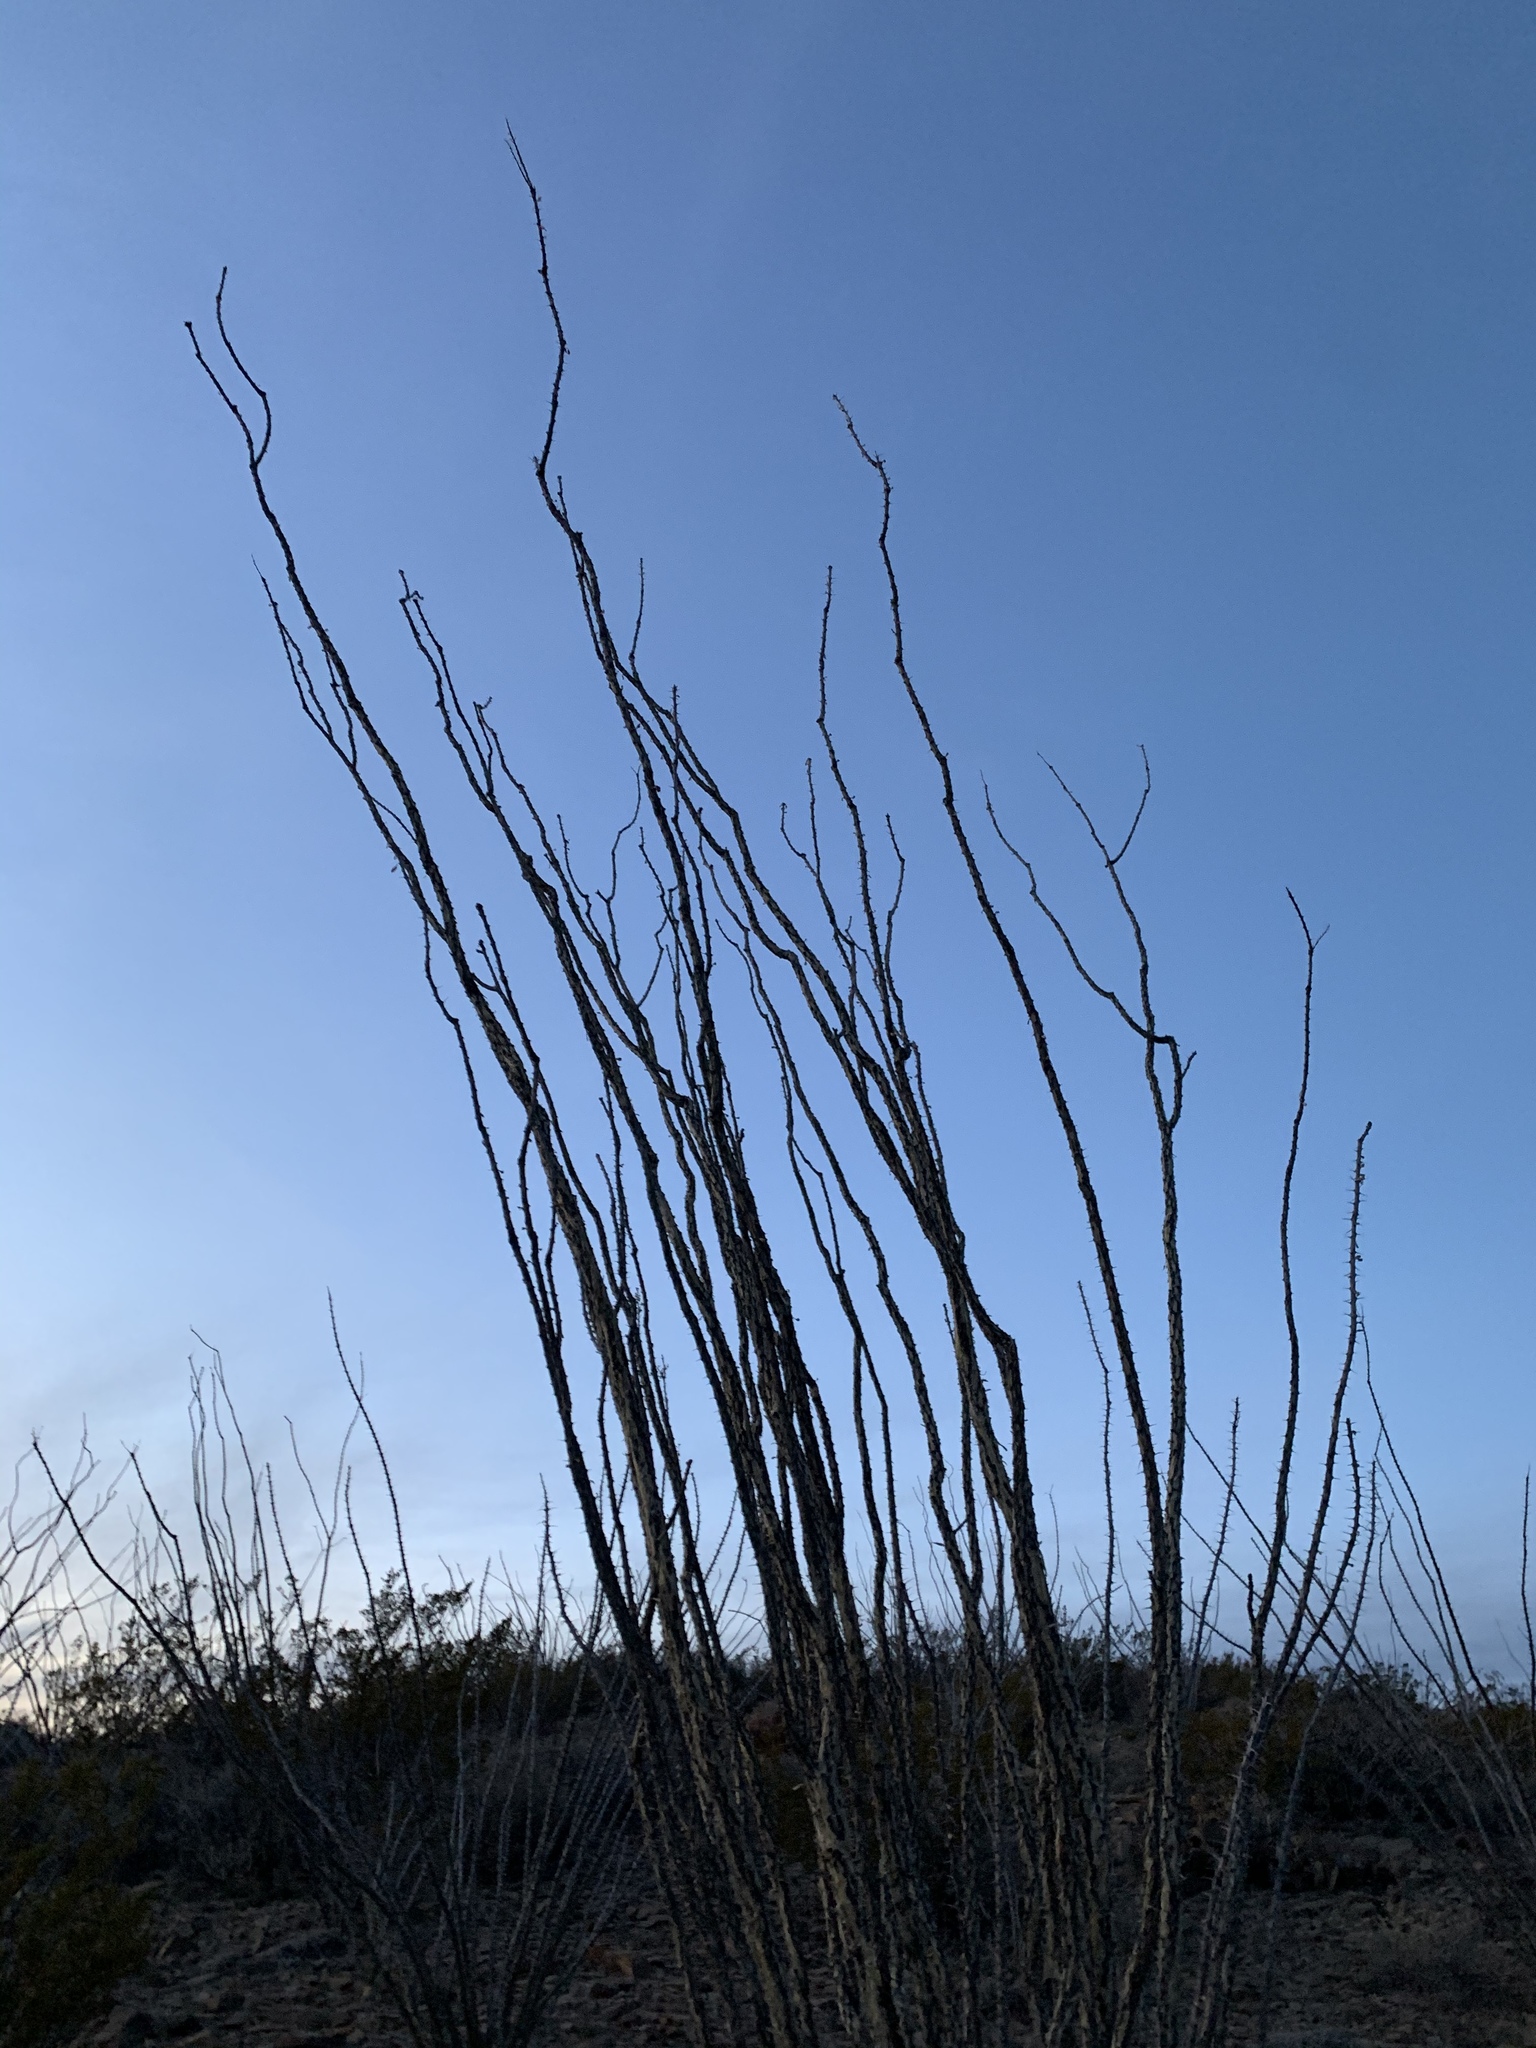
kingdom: Plantae
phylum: Tracheophyta
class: Magnoliopsida
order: Ericales
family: Fouquieriaceae
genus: Fouquieria
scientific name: Fouquieria splendens
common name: Vine-cactus
